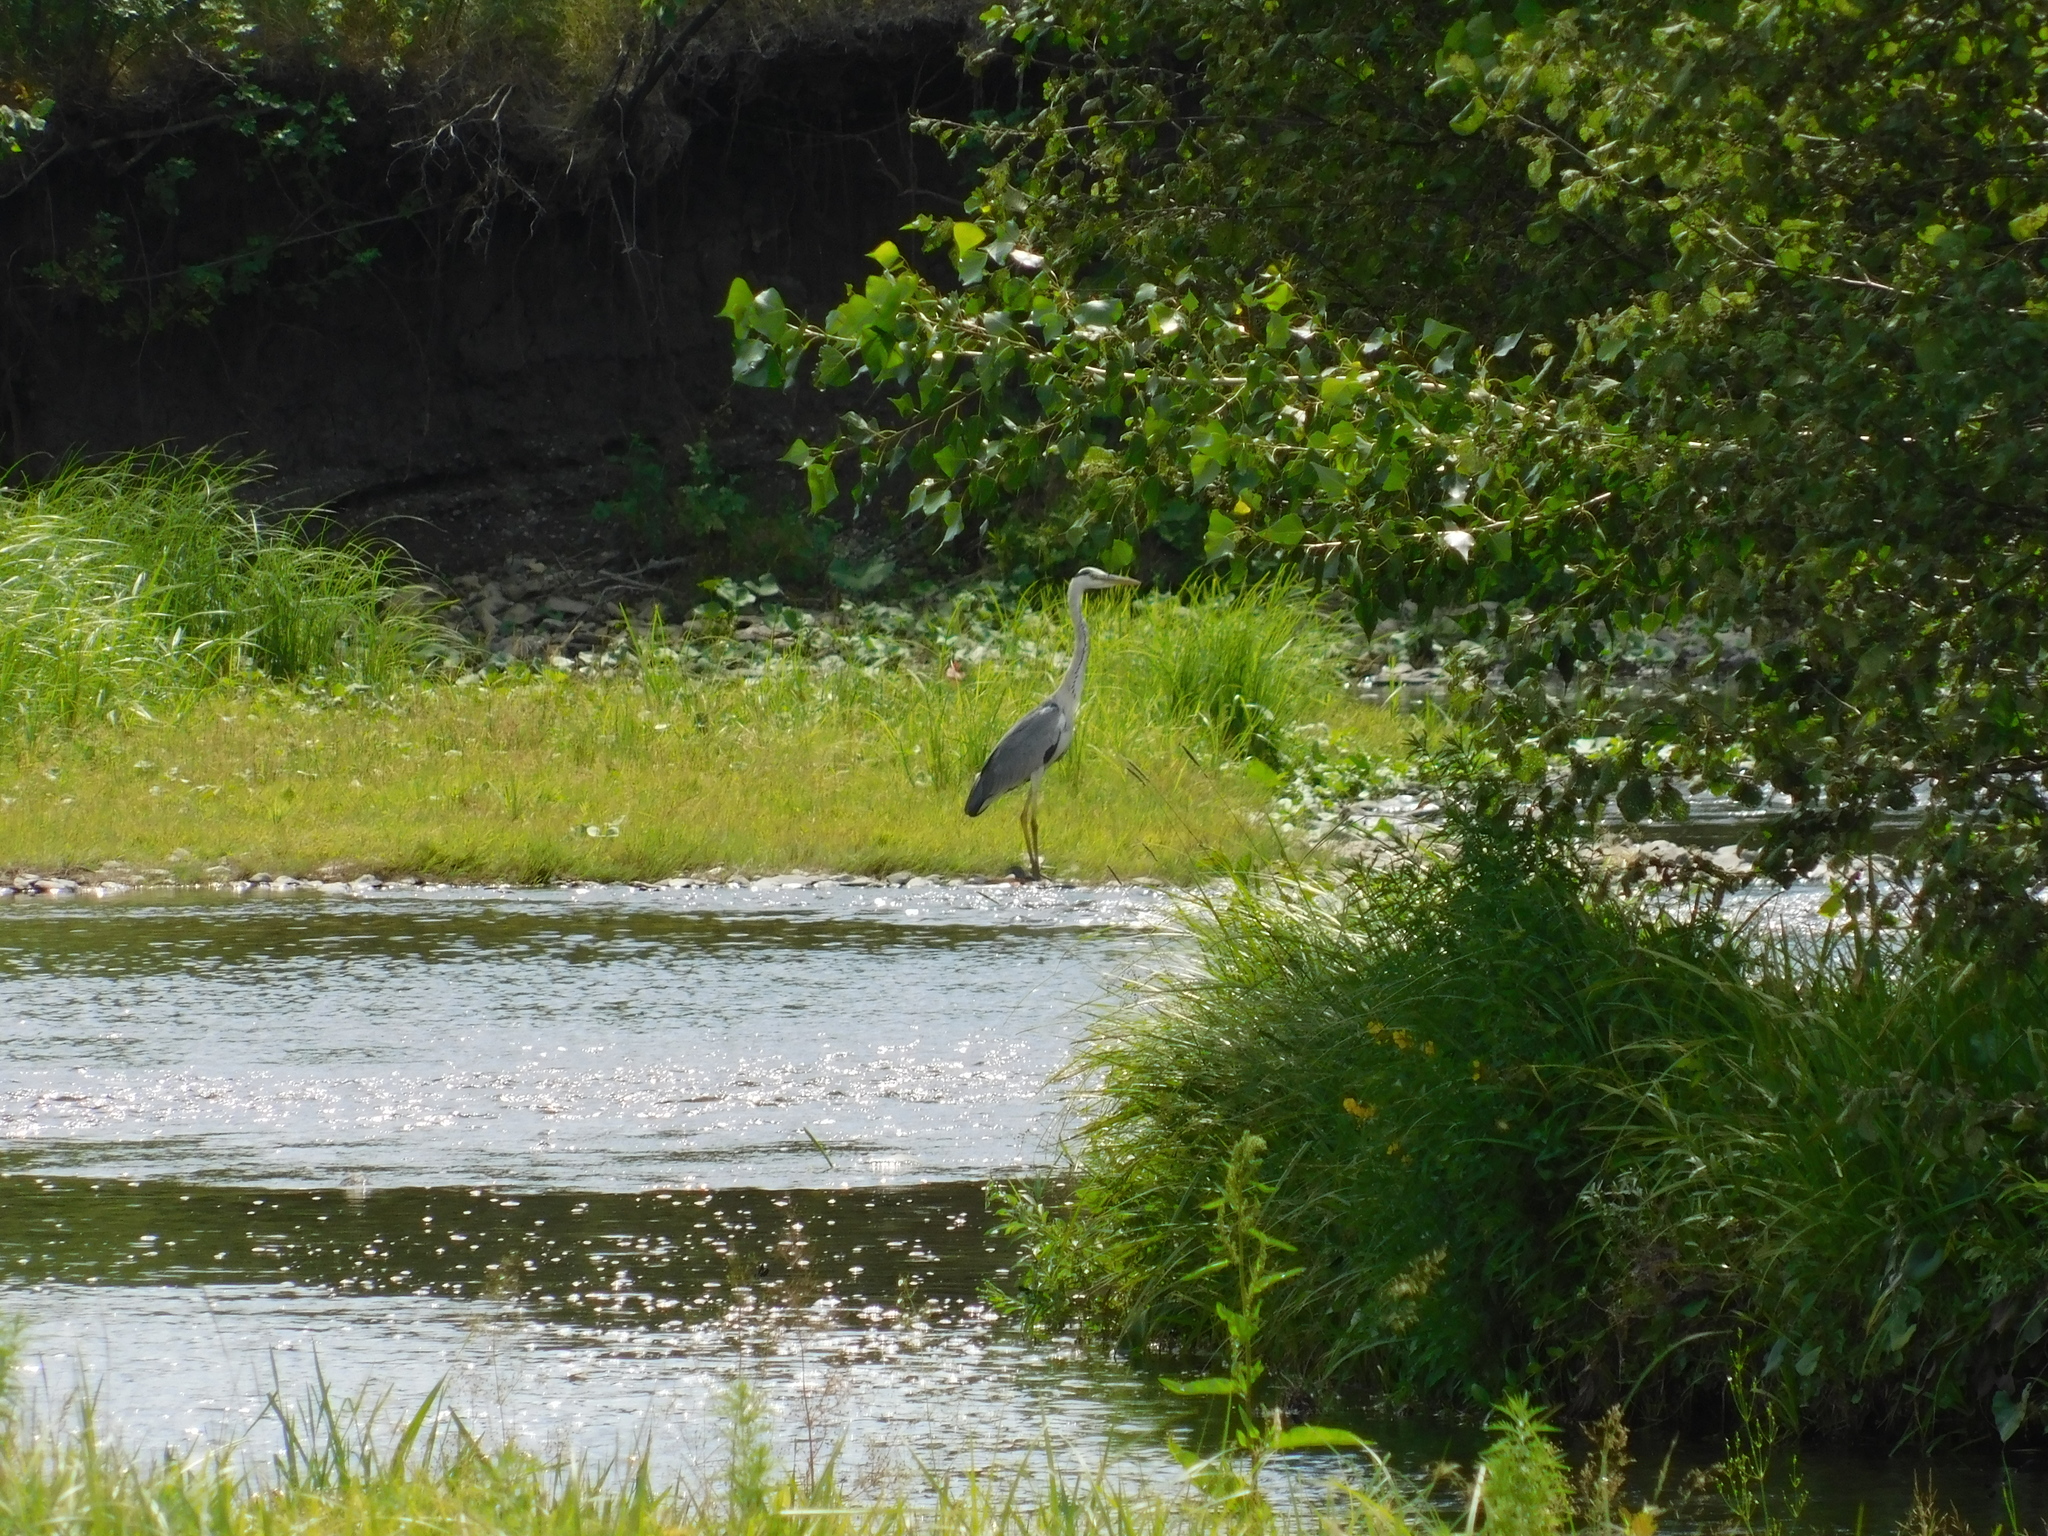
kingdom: Animalia
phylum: Chordata
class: Aves
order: Pelecaniformes
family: Ardeidae
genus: Ardea
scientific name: Ardea cinerea
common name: Grey heron
